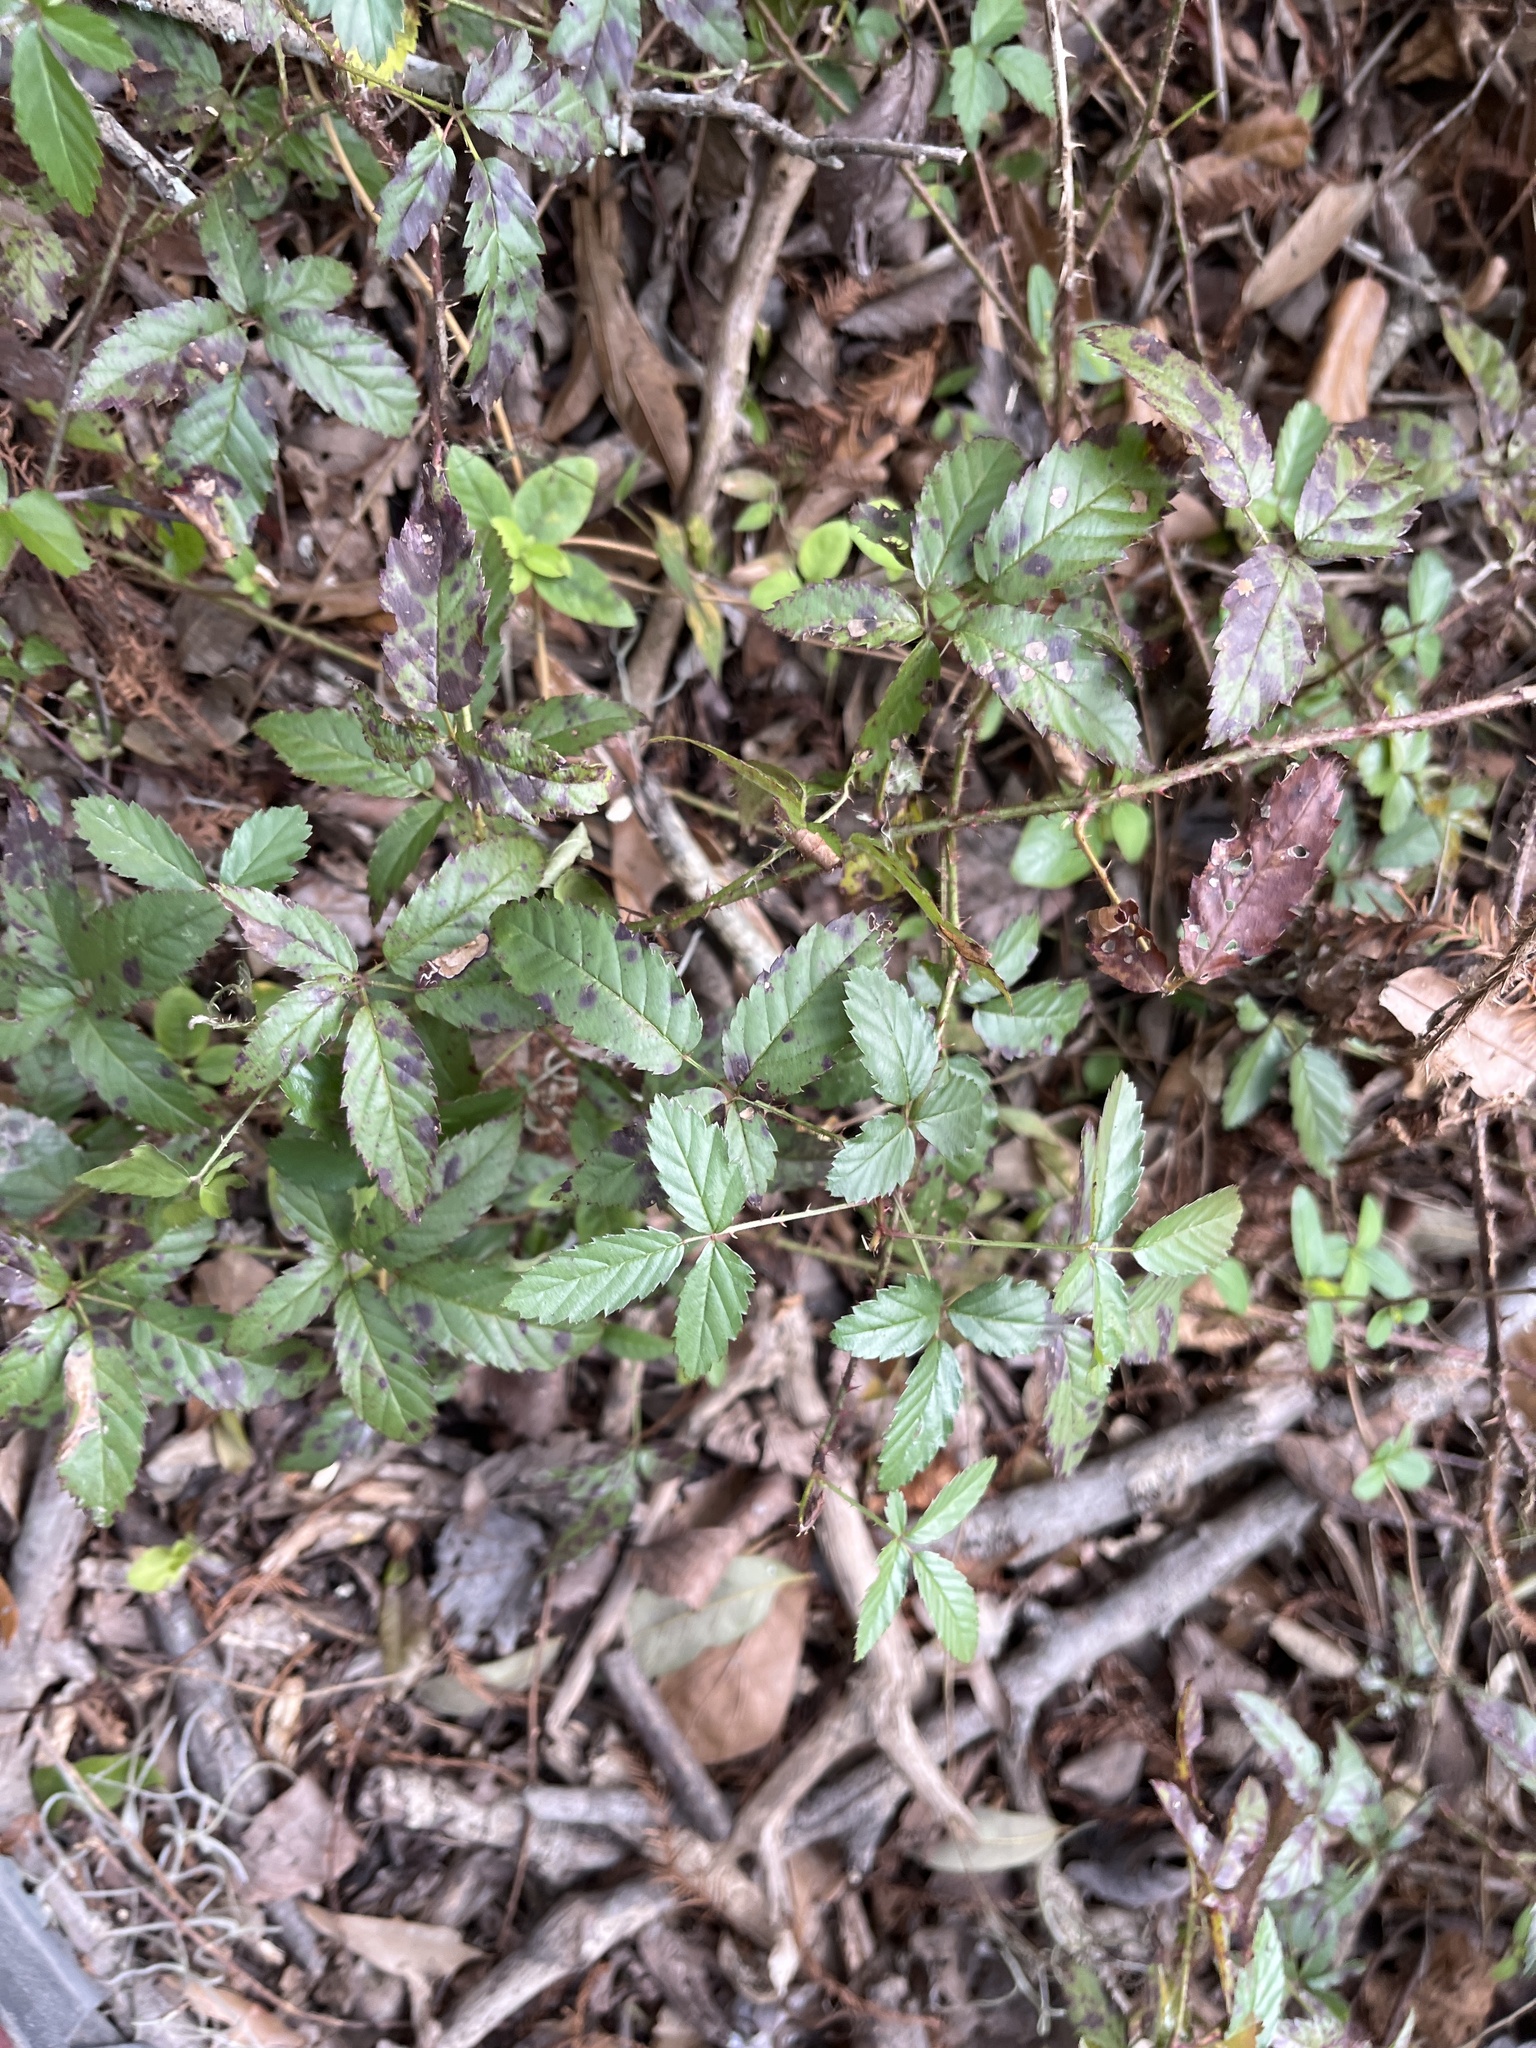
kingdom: Plantae
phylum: Tracheophyta
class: Magnoliopsida
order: Rosales
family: Rosaceae
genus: Rubus
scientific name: Rubus trivialis
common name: Southern dewberry
